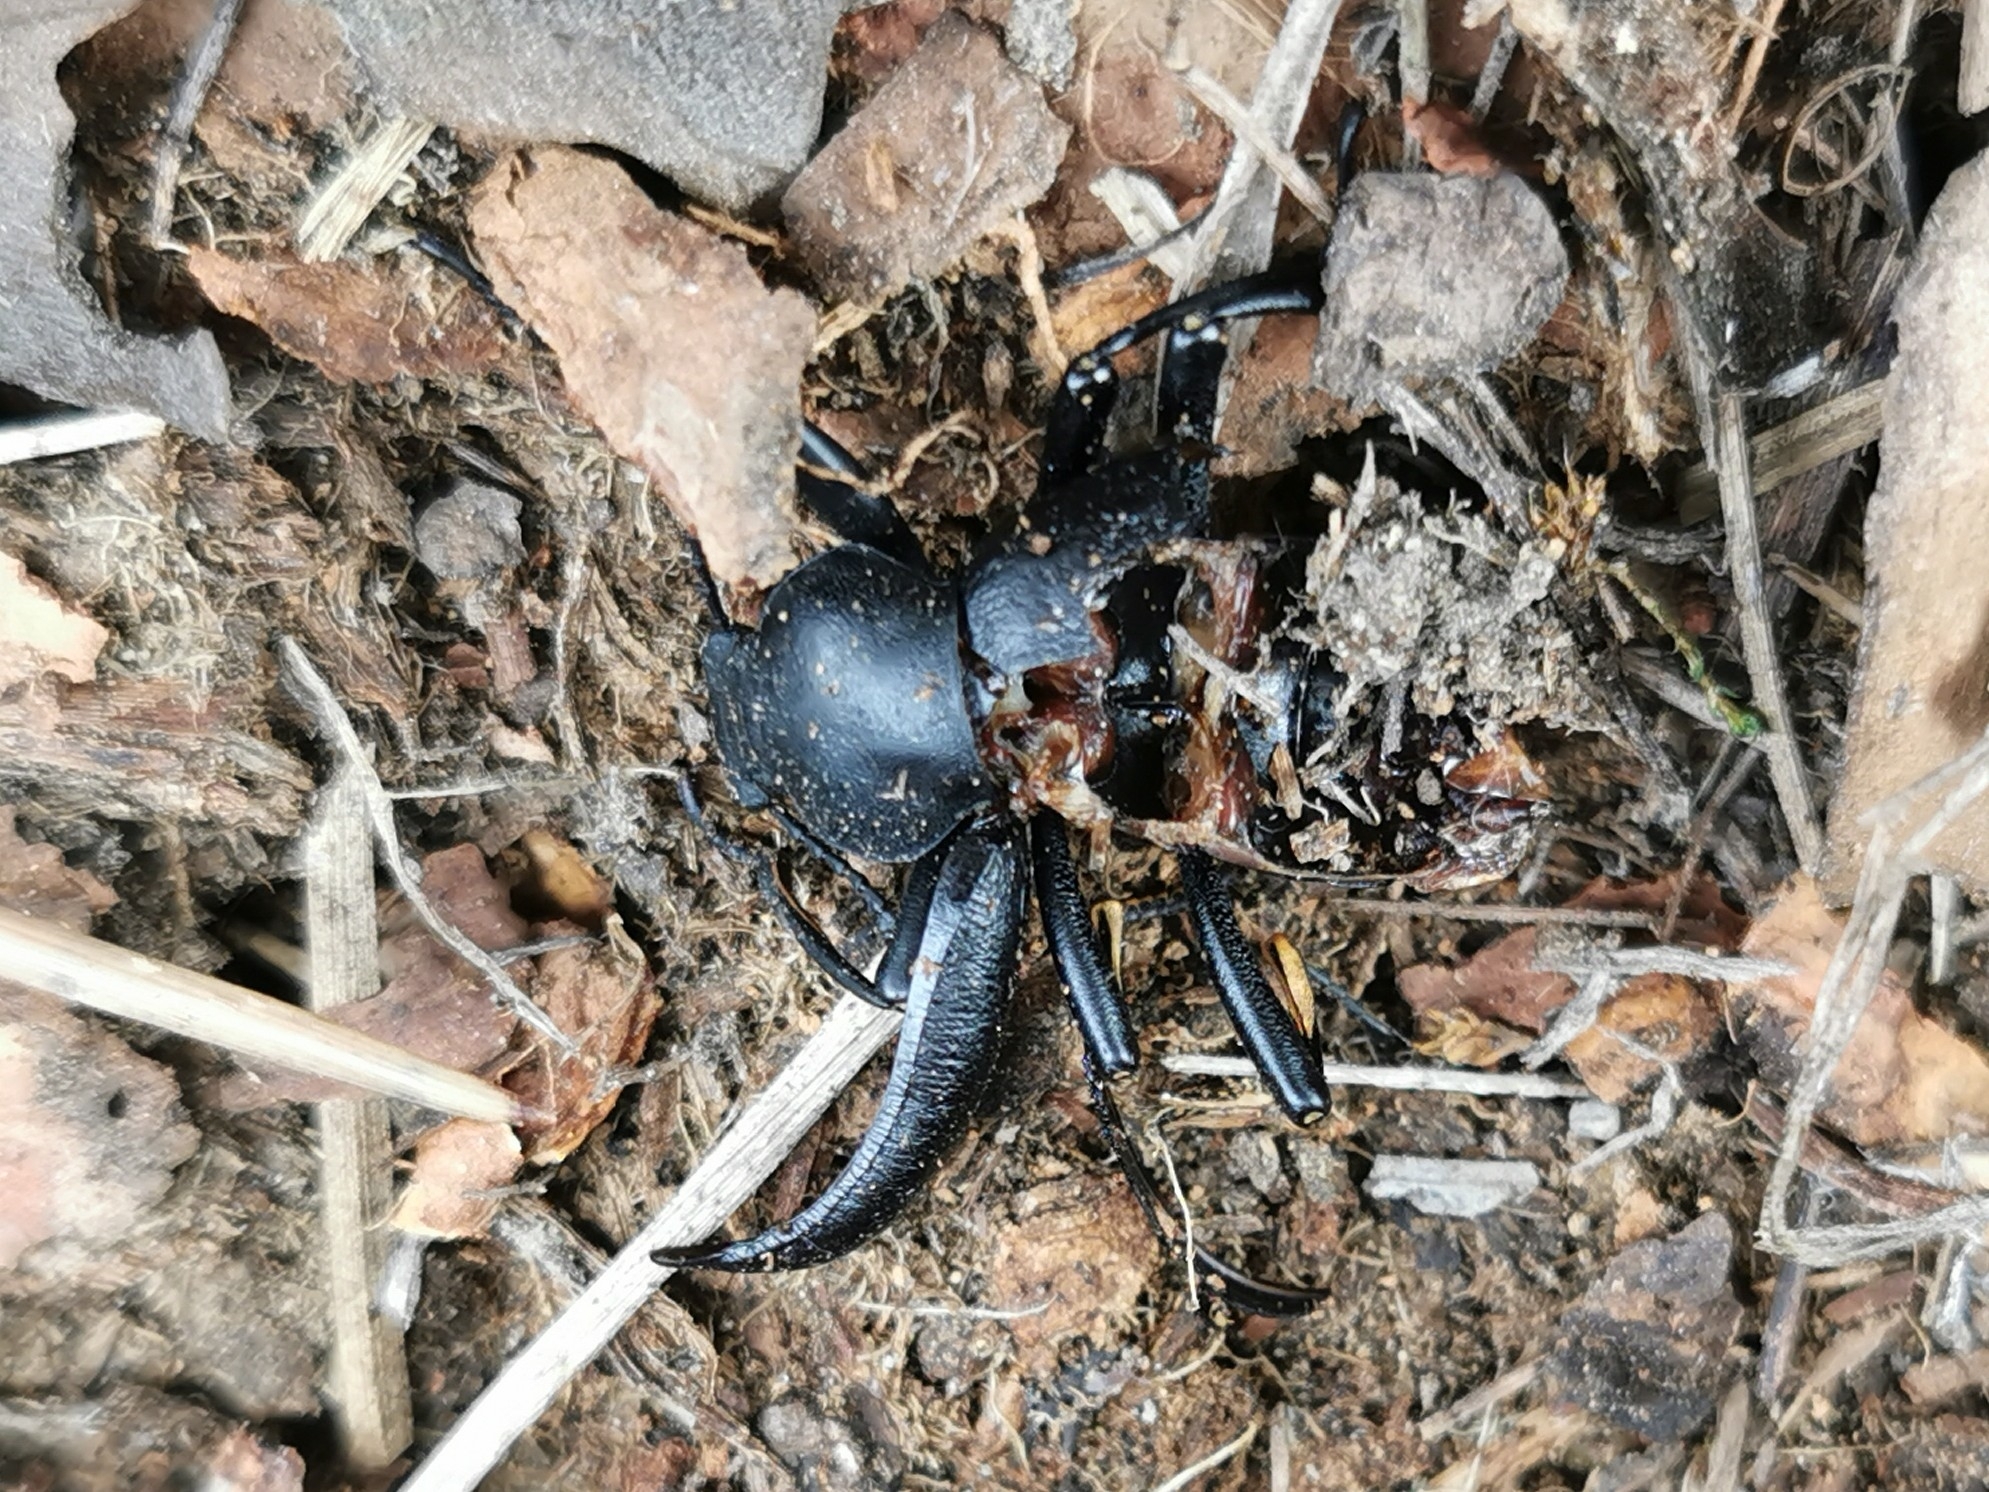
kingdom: Animalia
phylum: Arthropoda
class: Insecta
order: Coleoptera
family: Tenebrionidae
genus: Coelocnemis
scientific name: Coelocnemis dilaticollis
